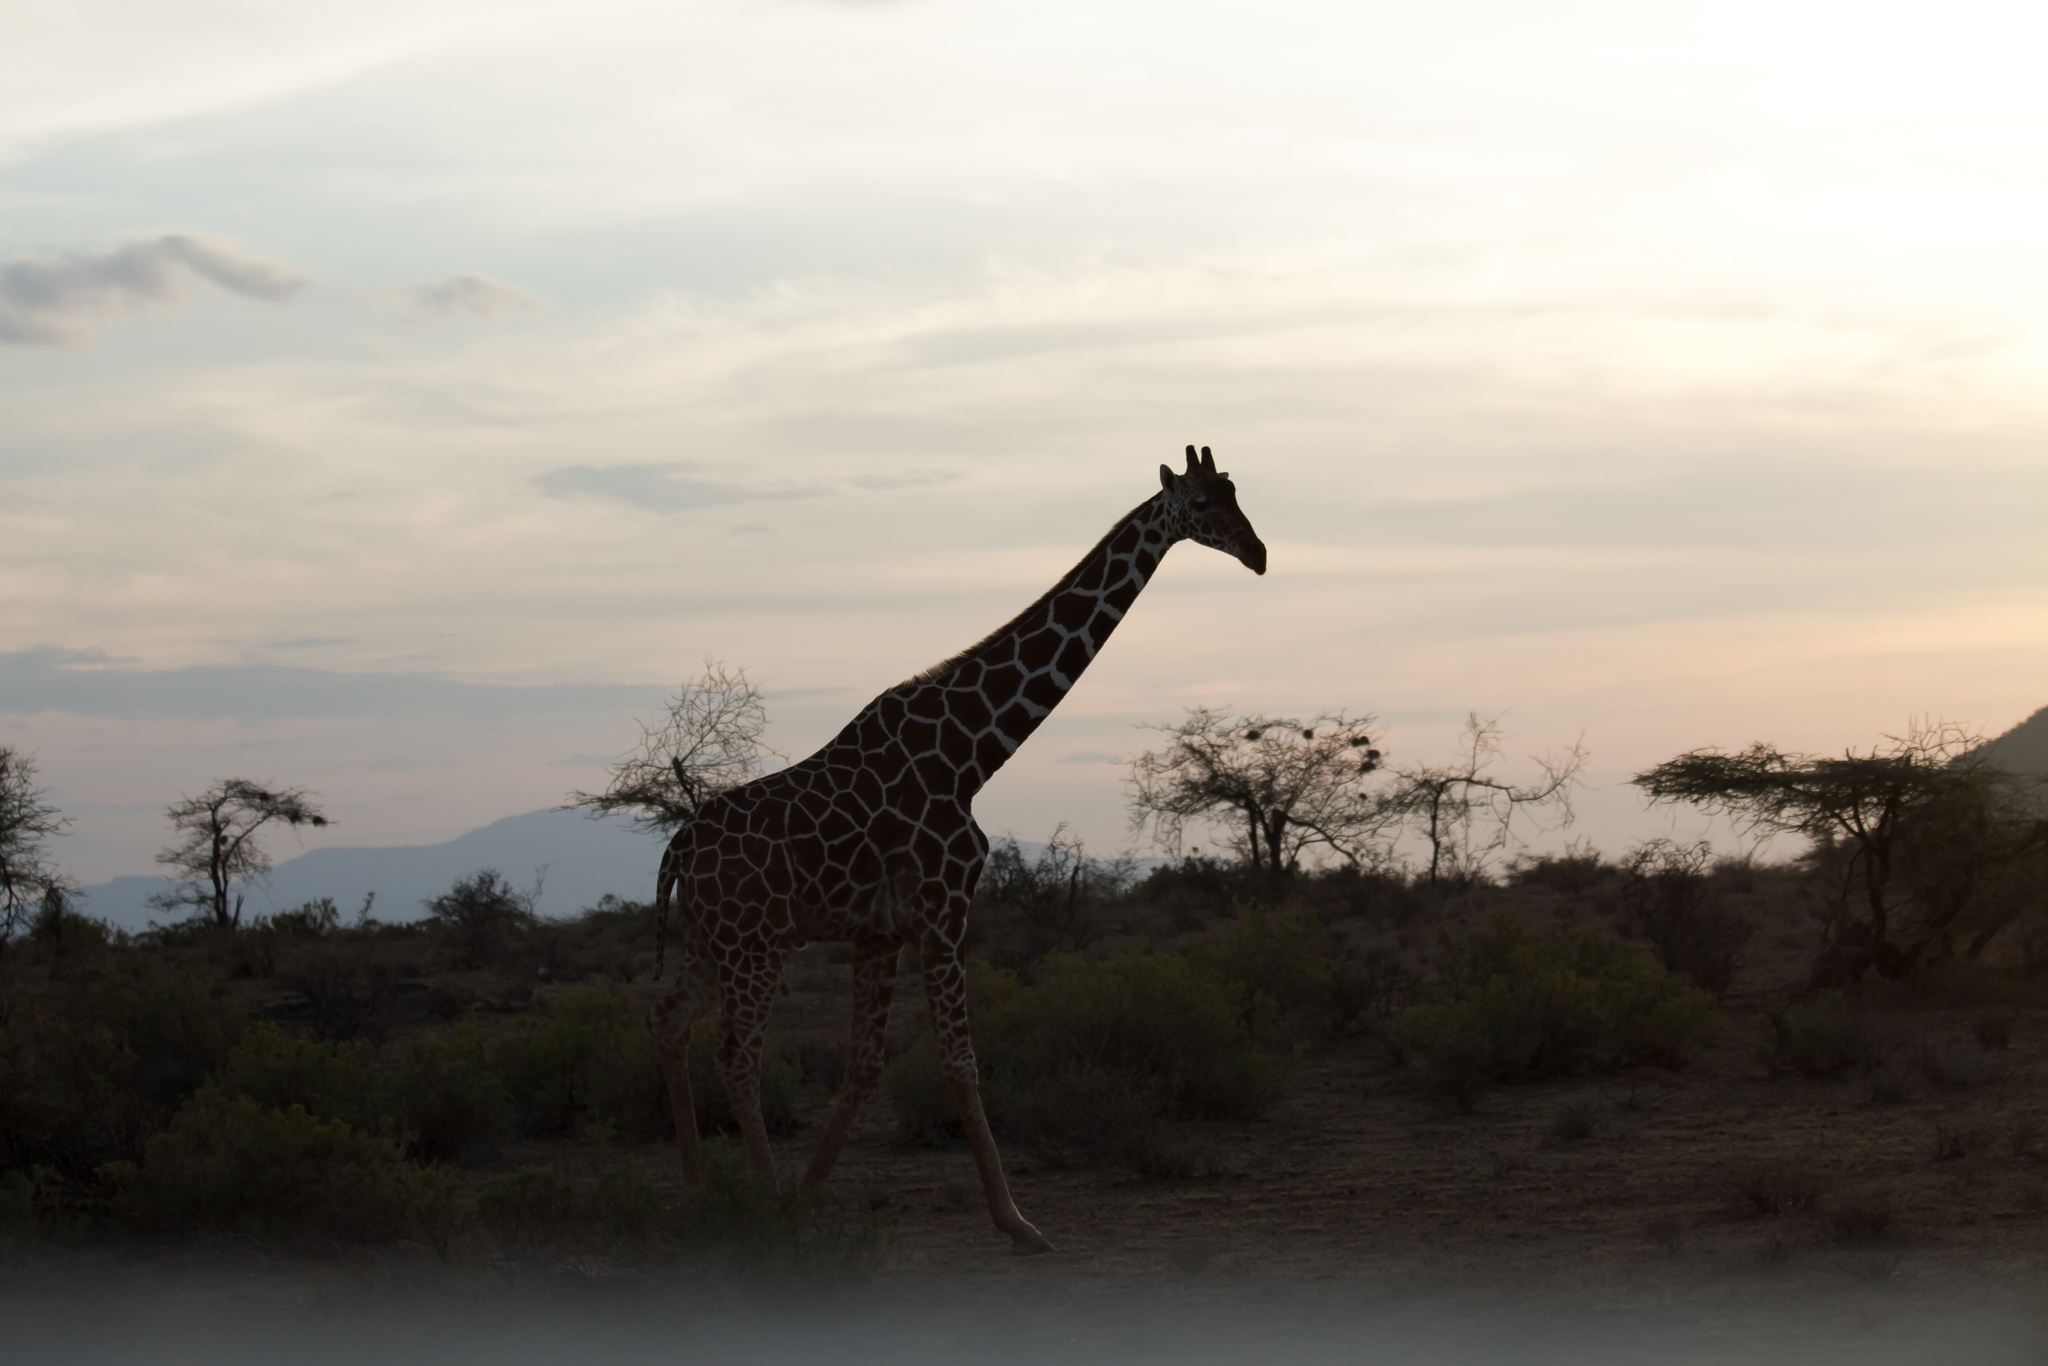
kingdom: Animalia
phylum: Chordata
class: Mammalia
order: Artiodactyla
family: Giraffidae
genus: Giraffa
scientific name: Giraffa reticulata
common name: Reticulated giraffe
